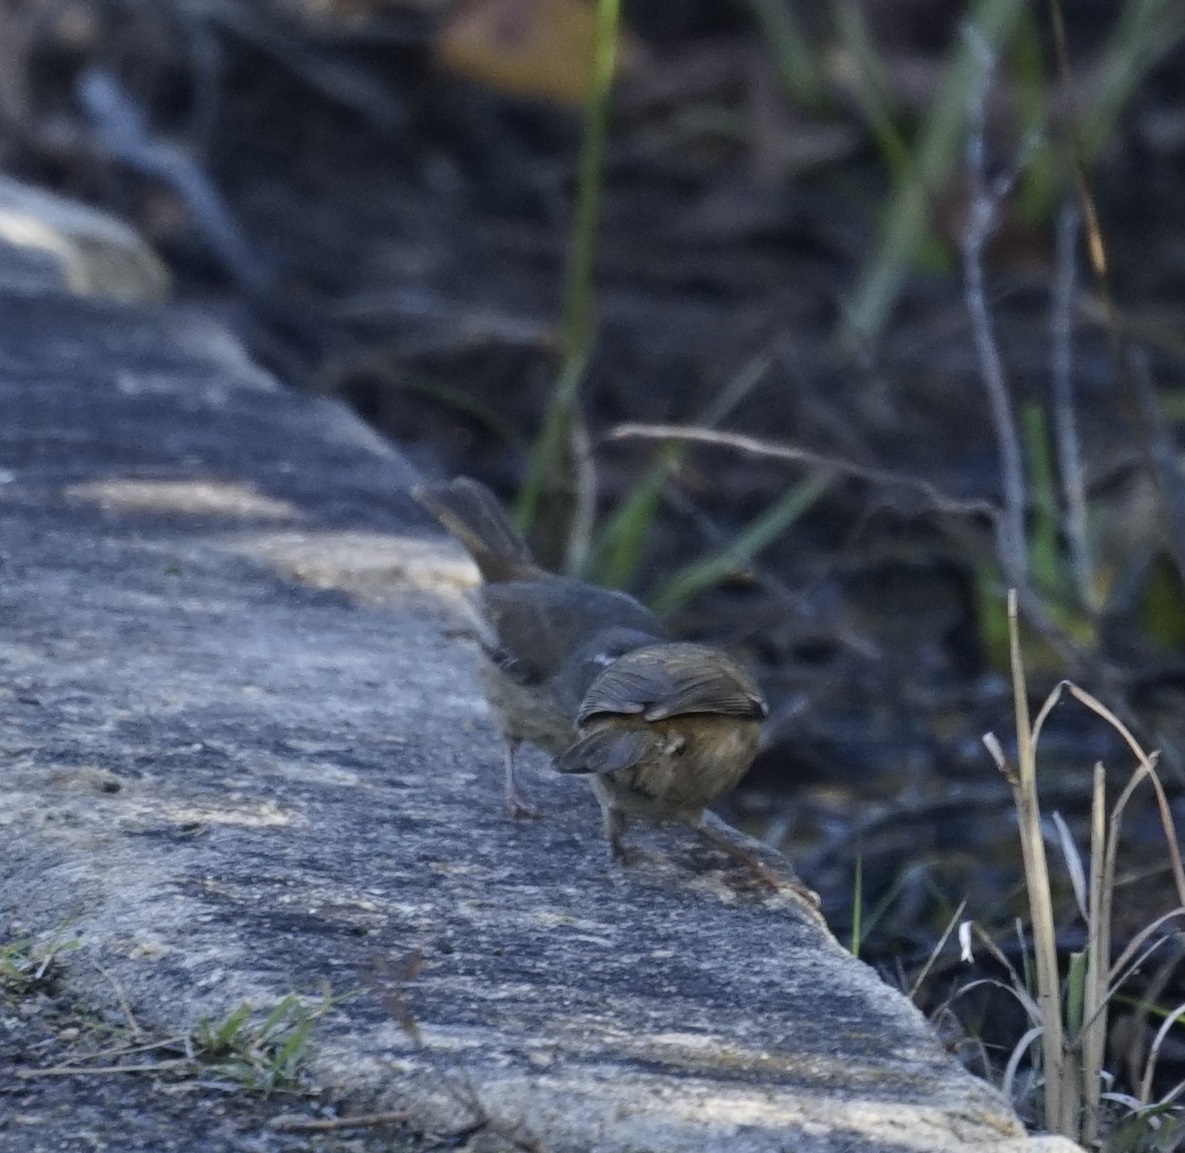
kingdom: Animalia
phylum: Chordata
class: Aves
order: Passeriformes
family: Acanthizidae
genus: Sericornis
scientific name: Sericornis frontalis
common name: White-browed scrubwren
